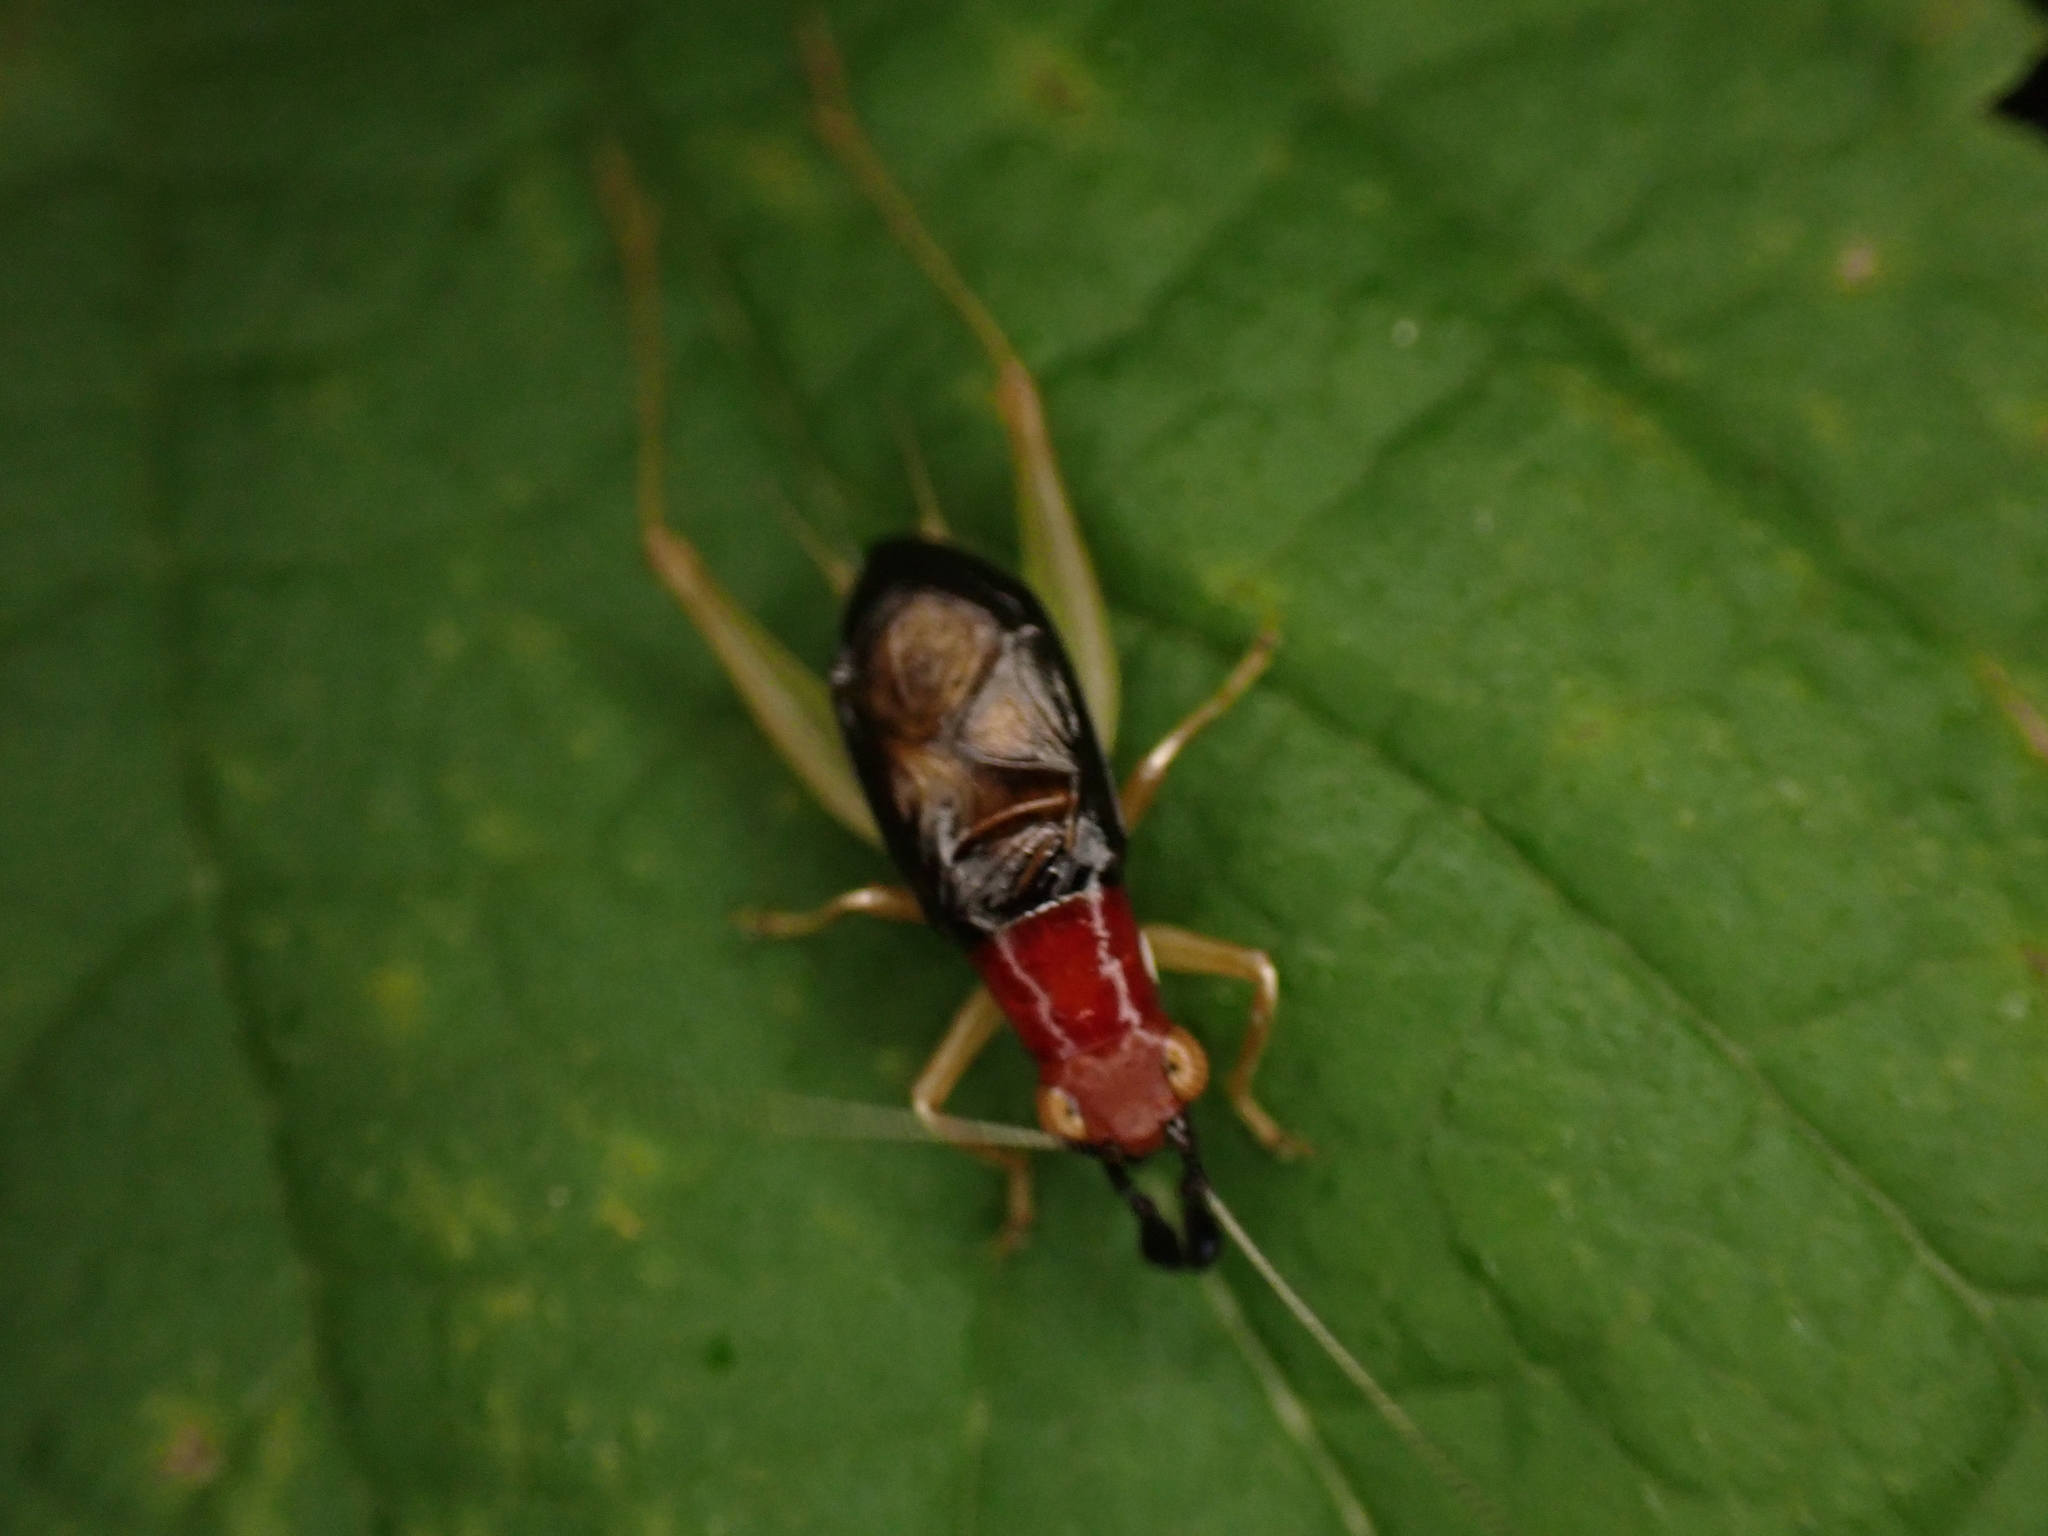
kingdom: Animalia
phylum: Arthropoda
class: Insecta
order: Orthoptera
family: Trigonidiidae
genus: Phyllopalpus
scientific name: Phyllopalpus pulchellus
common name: Handsome trig
